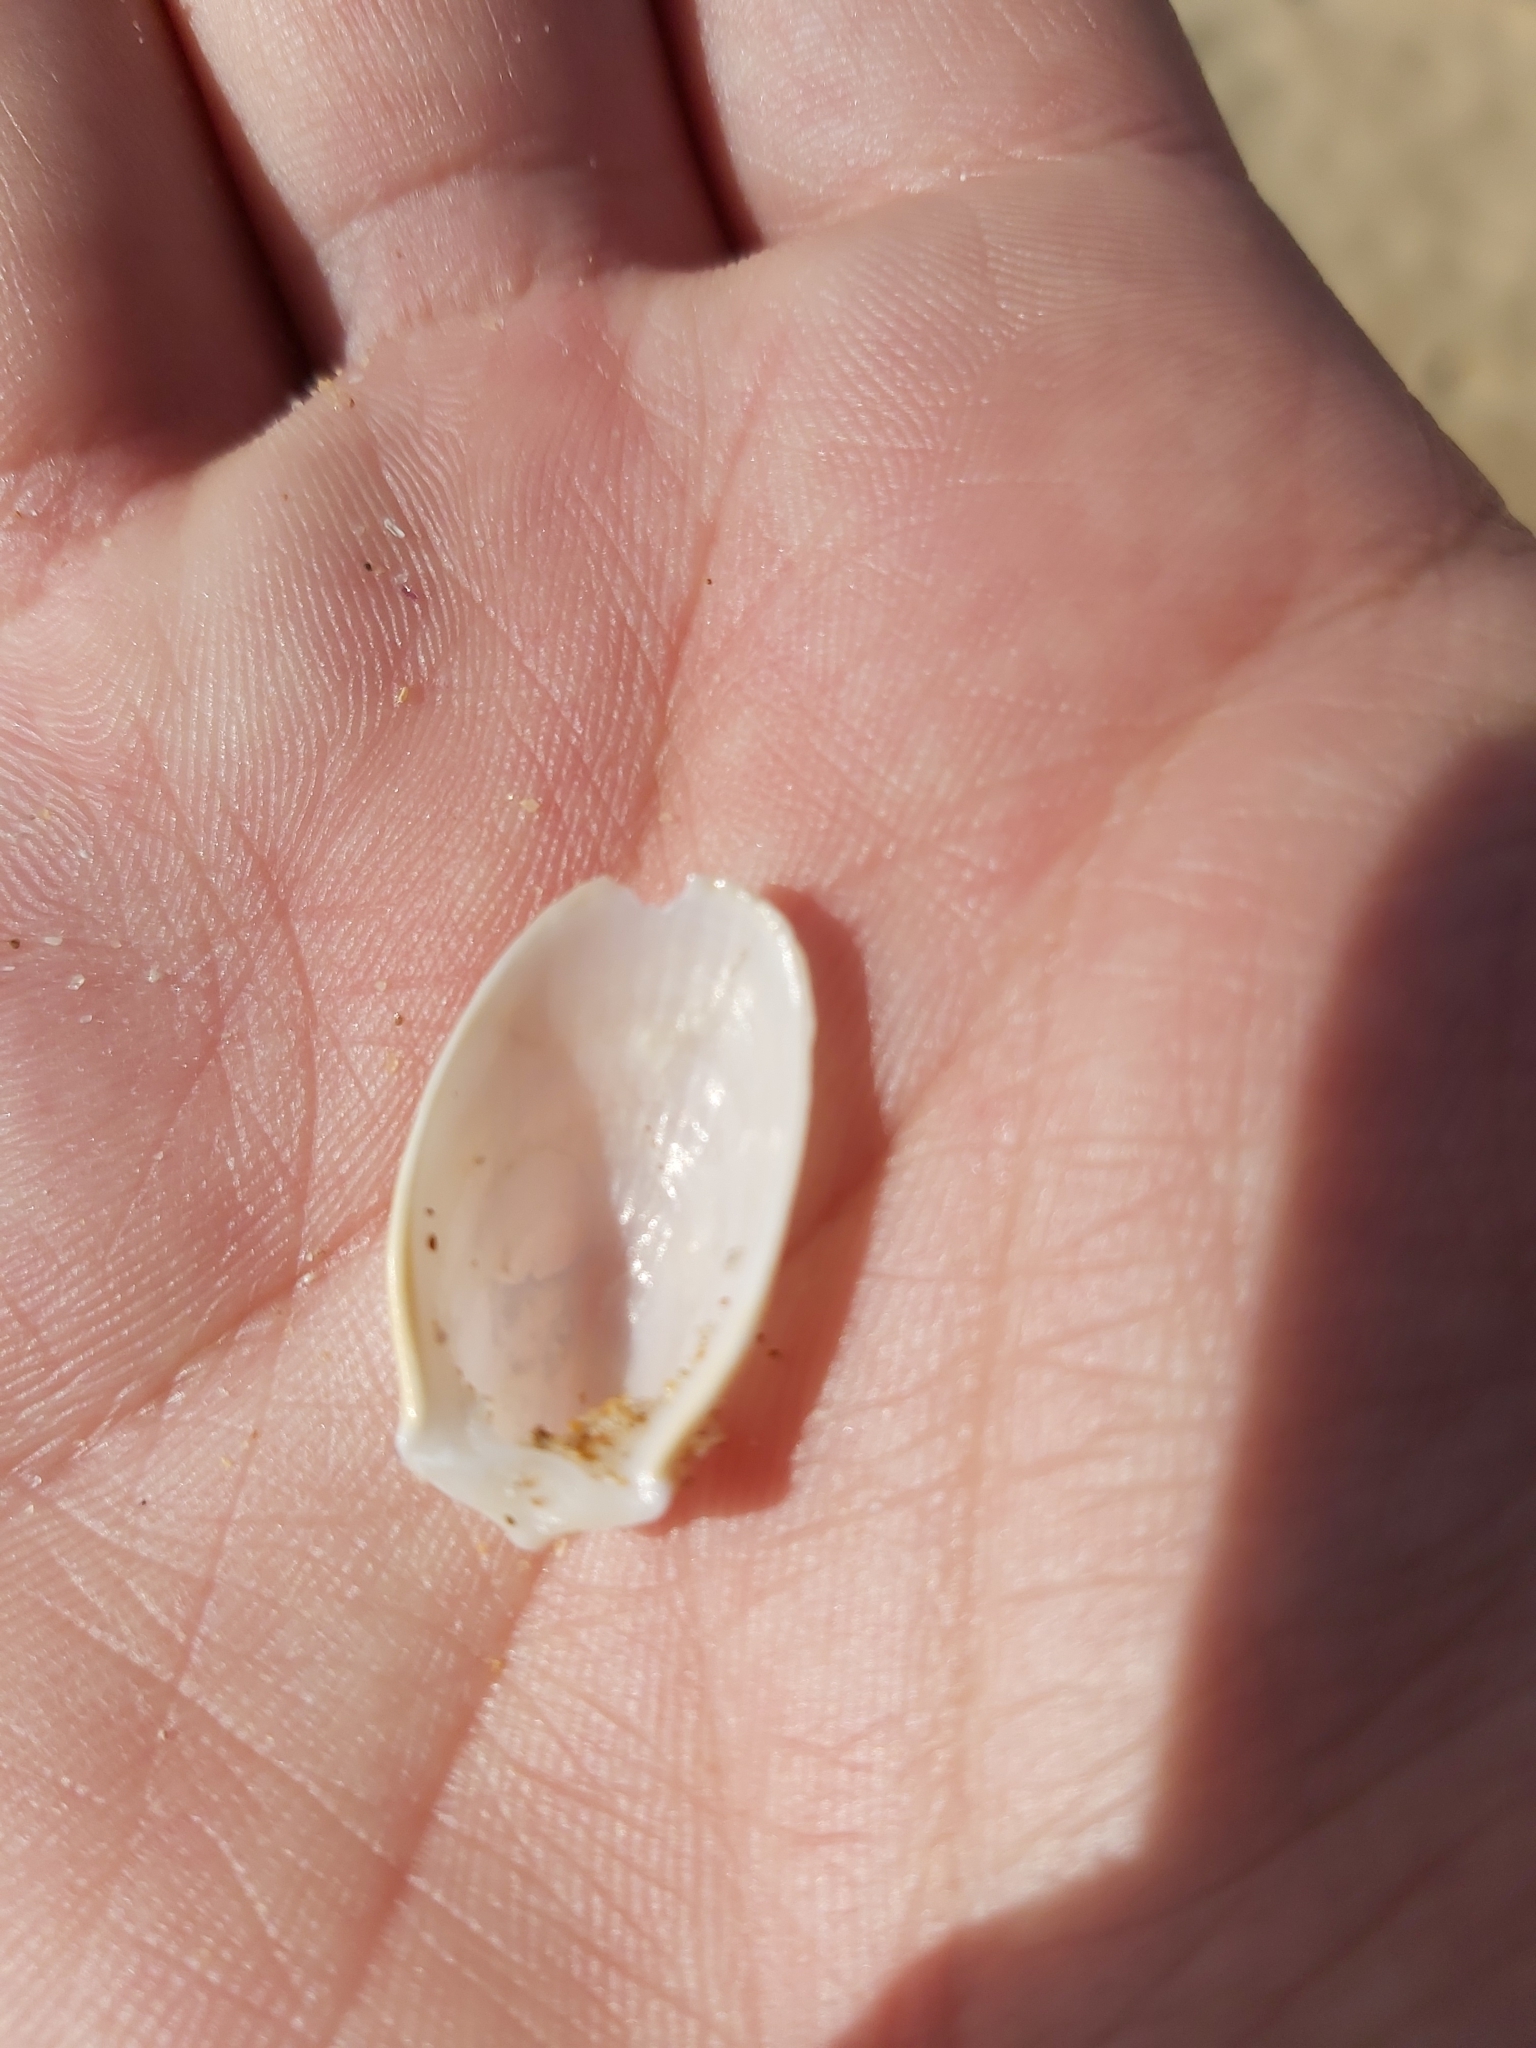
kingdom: Animalia
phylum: Mollusca
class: Bivalvia
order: Limida
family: Limidae
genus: Limatula
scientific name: Limatula strangei
